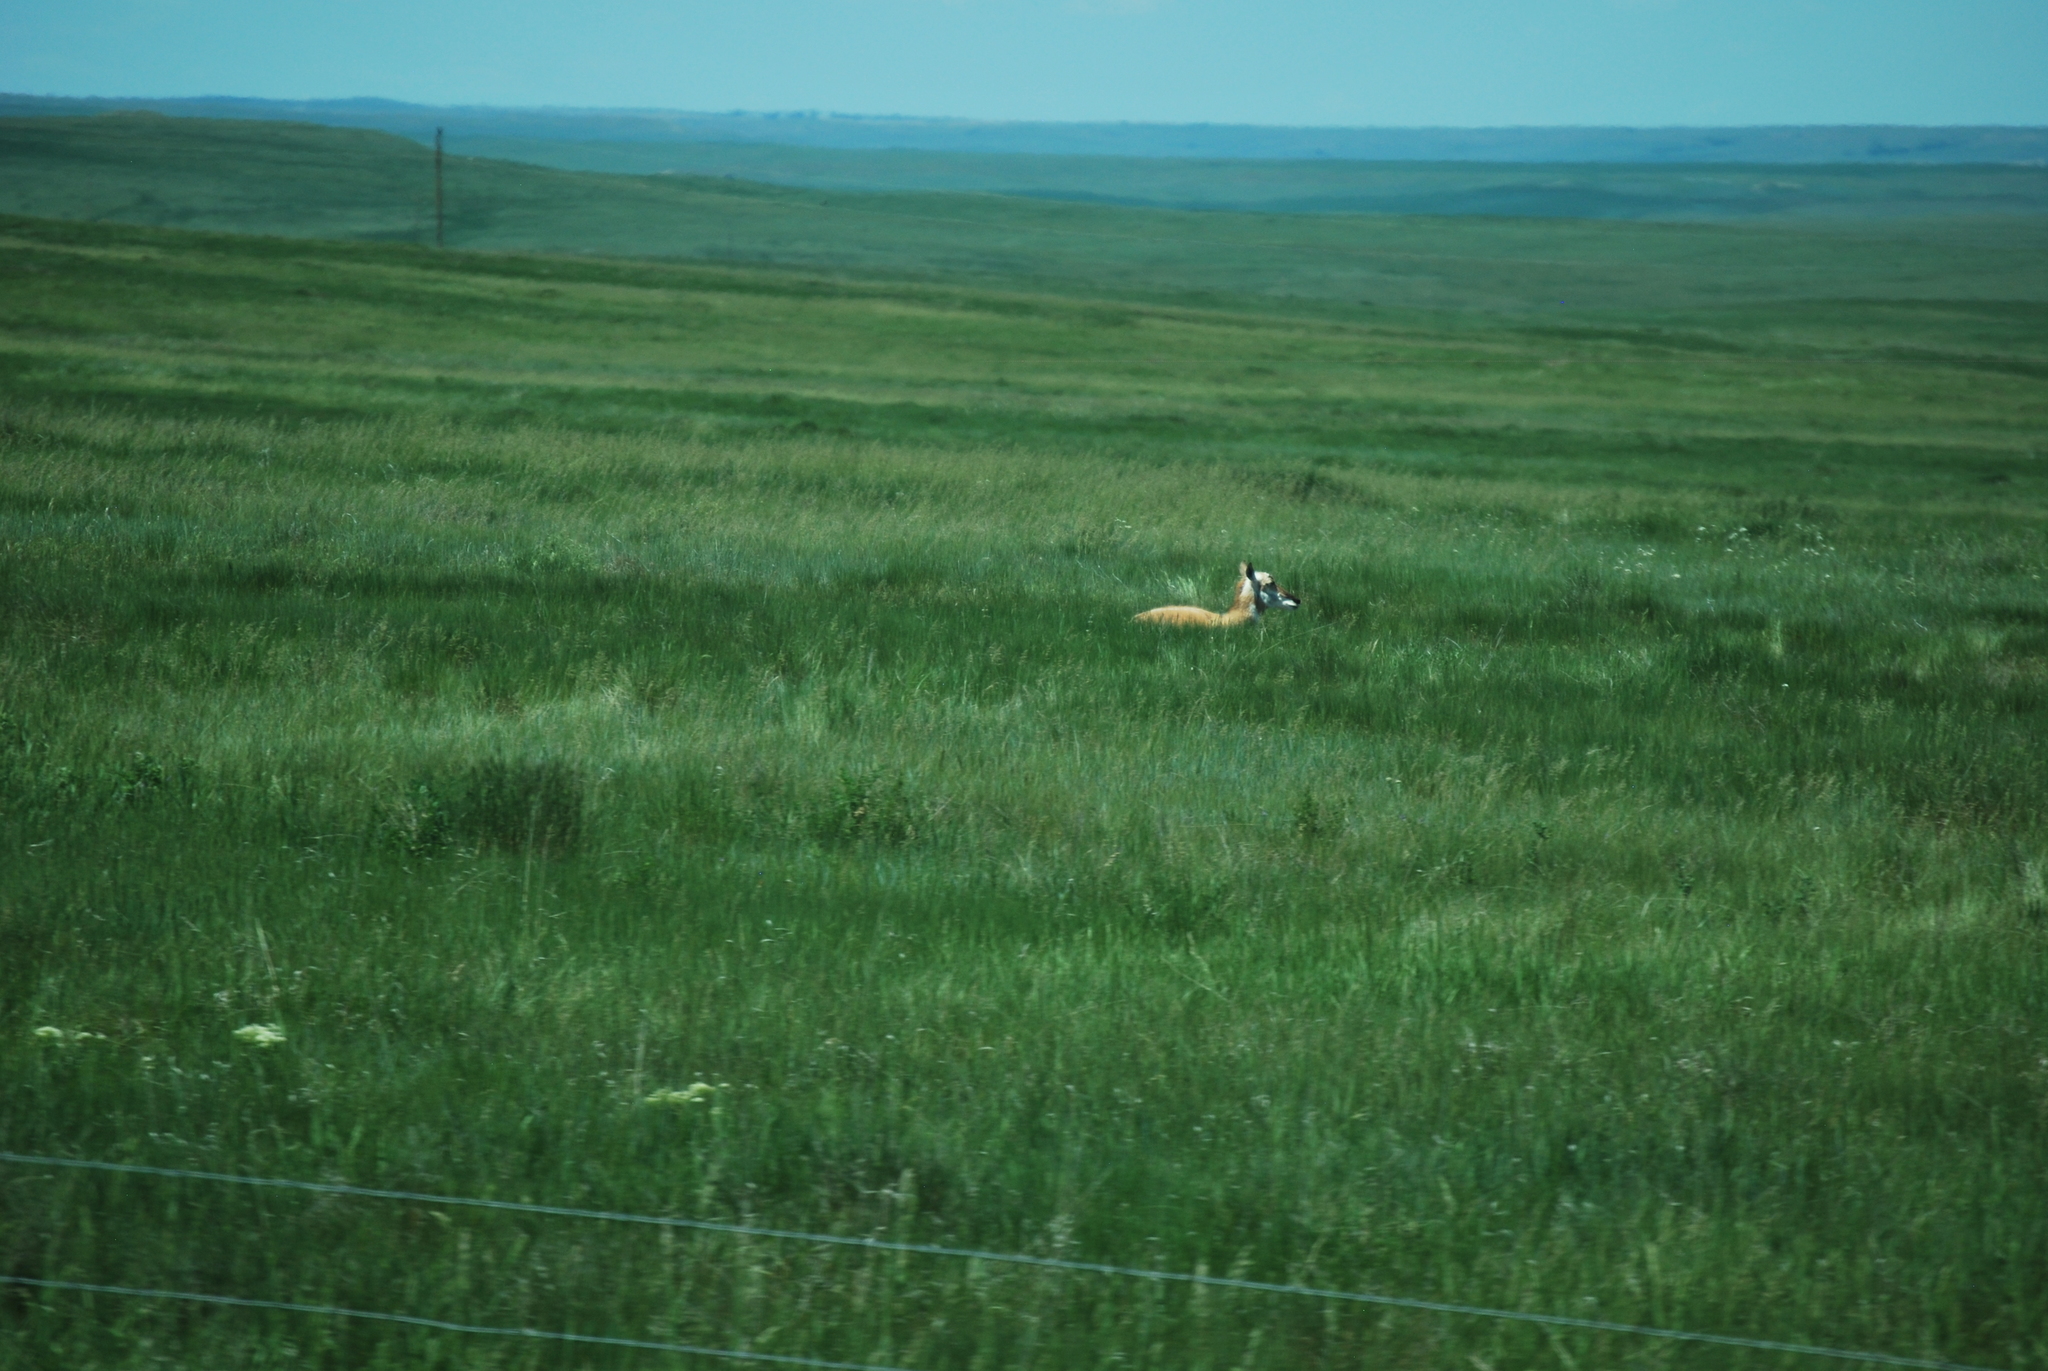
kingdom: Animalia
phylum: Chordata
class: Mammalia
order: Artiodactyla
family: Antilocapridae
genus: Antilocapra
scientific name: Antilocapra americana
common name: Pronghorn
